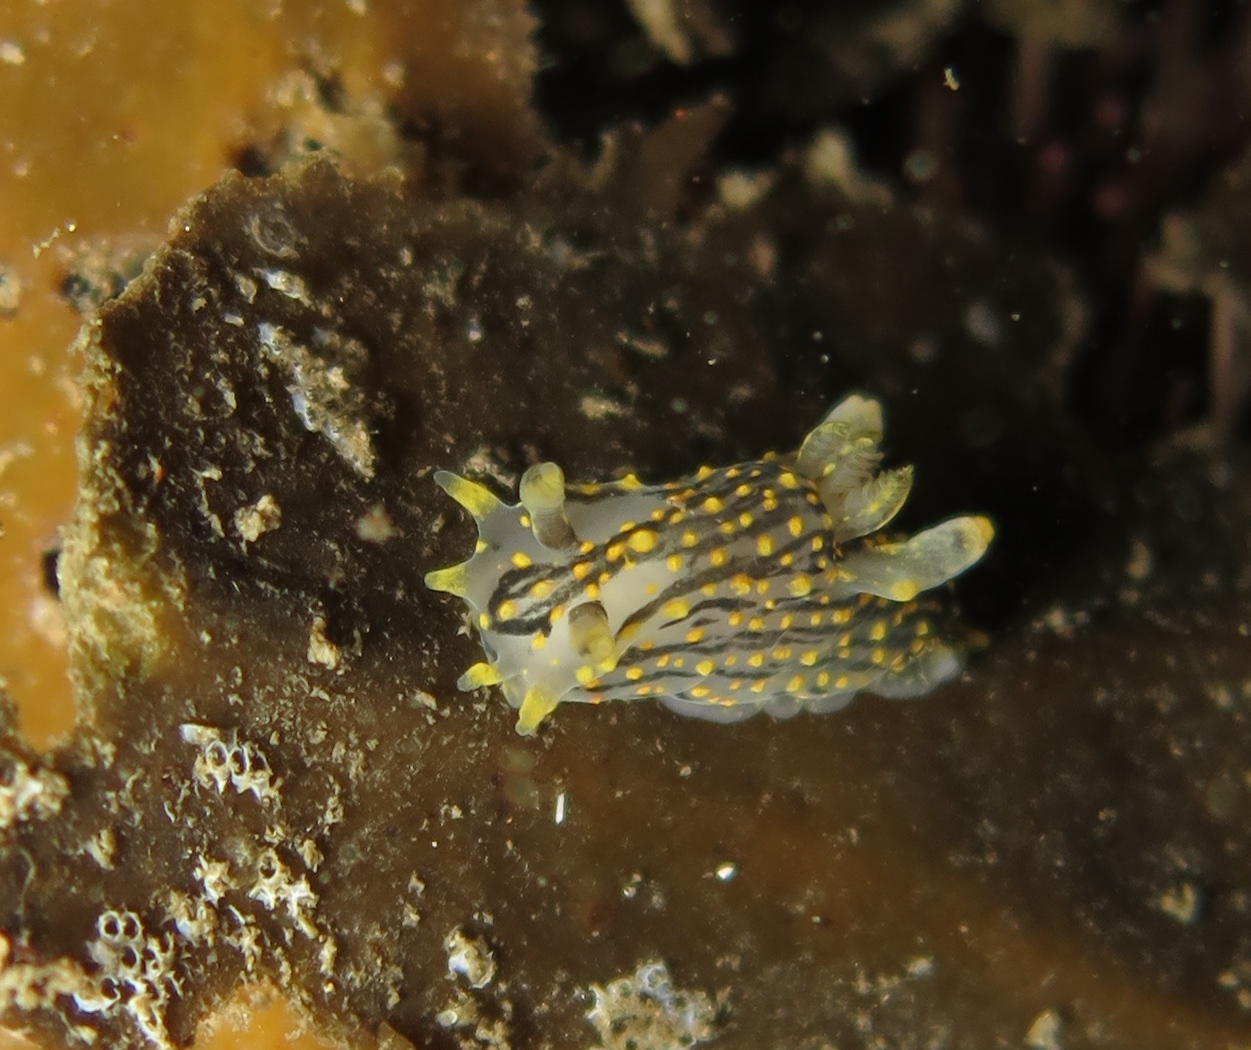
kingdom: Animalia
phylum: Mollusca
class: Gastropoda
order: Nudibranchia
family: Polyceridae
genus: Polycera
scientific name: Polycera quadrilineata
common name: Four-striped polycera
